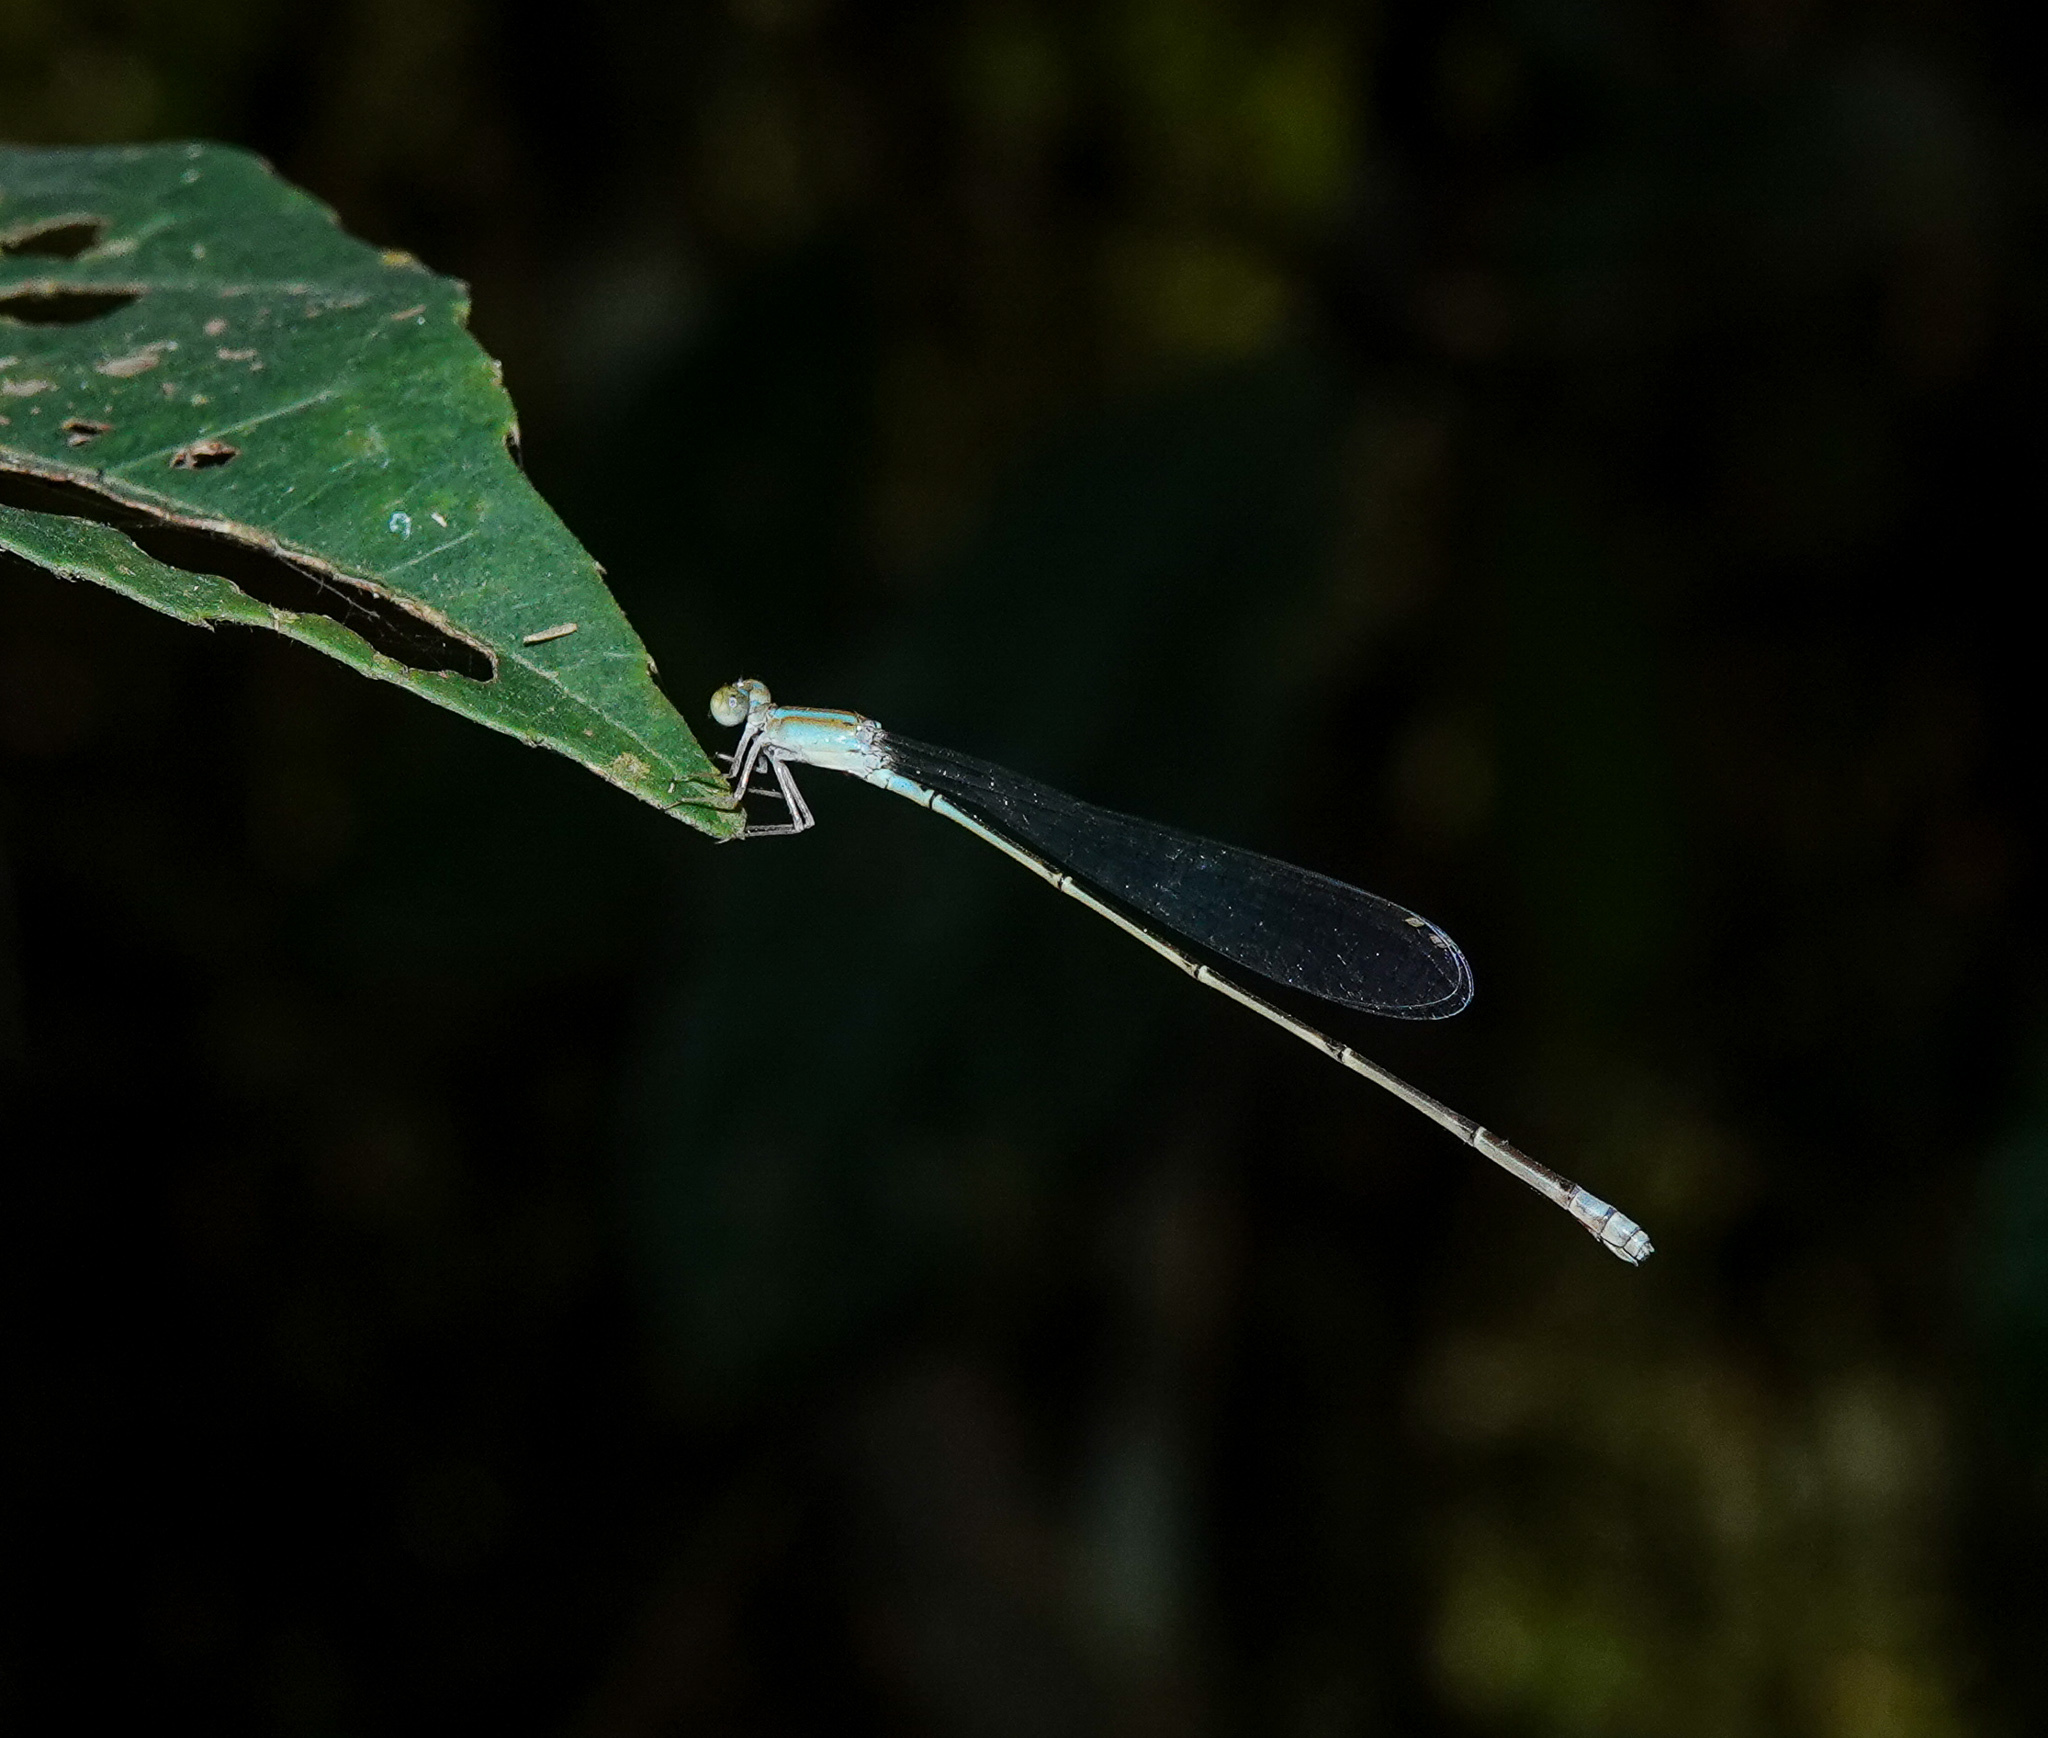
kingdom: Animalia
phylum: Arthropoda
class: Insecta
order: Odonata
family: Coenagrionidae
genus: Aciagrion
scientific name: Aciagrion pallidum
